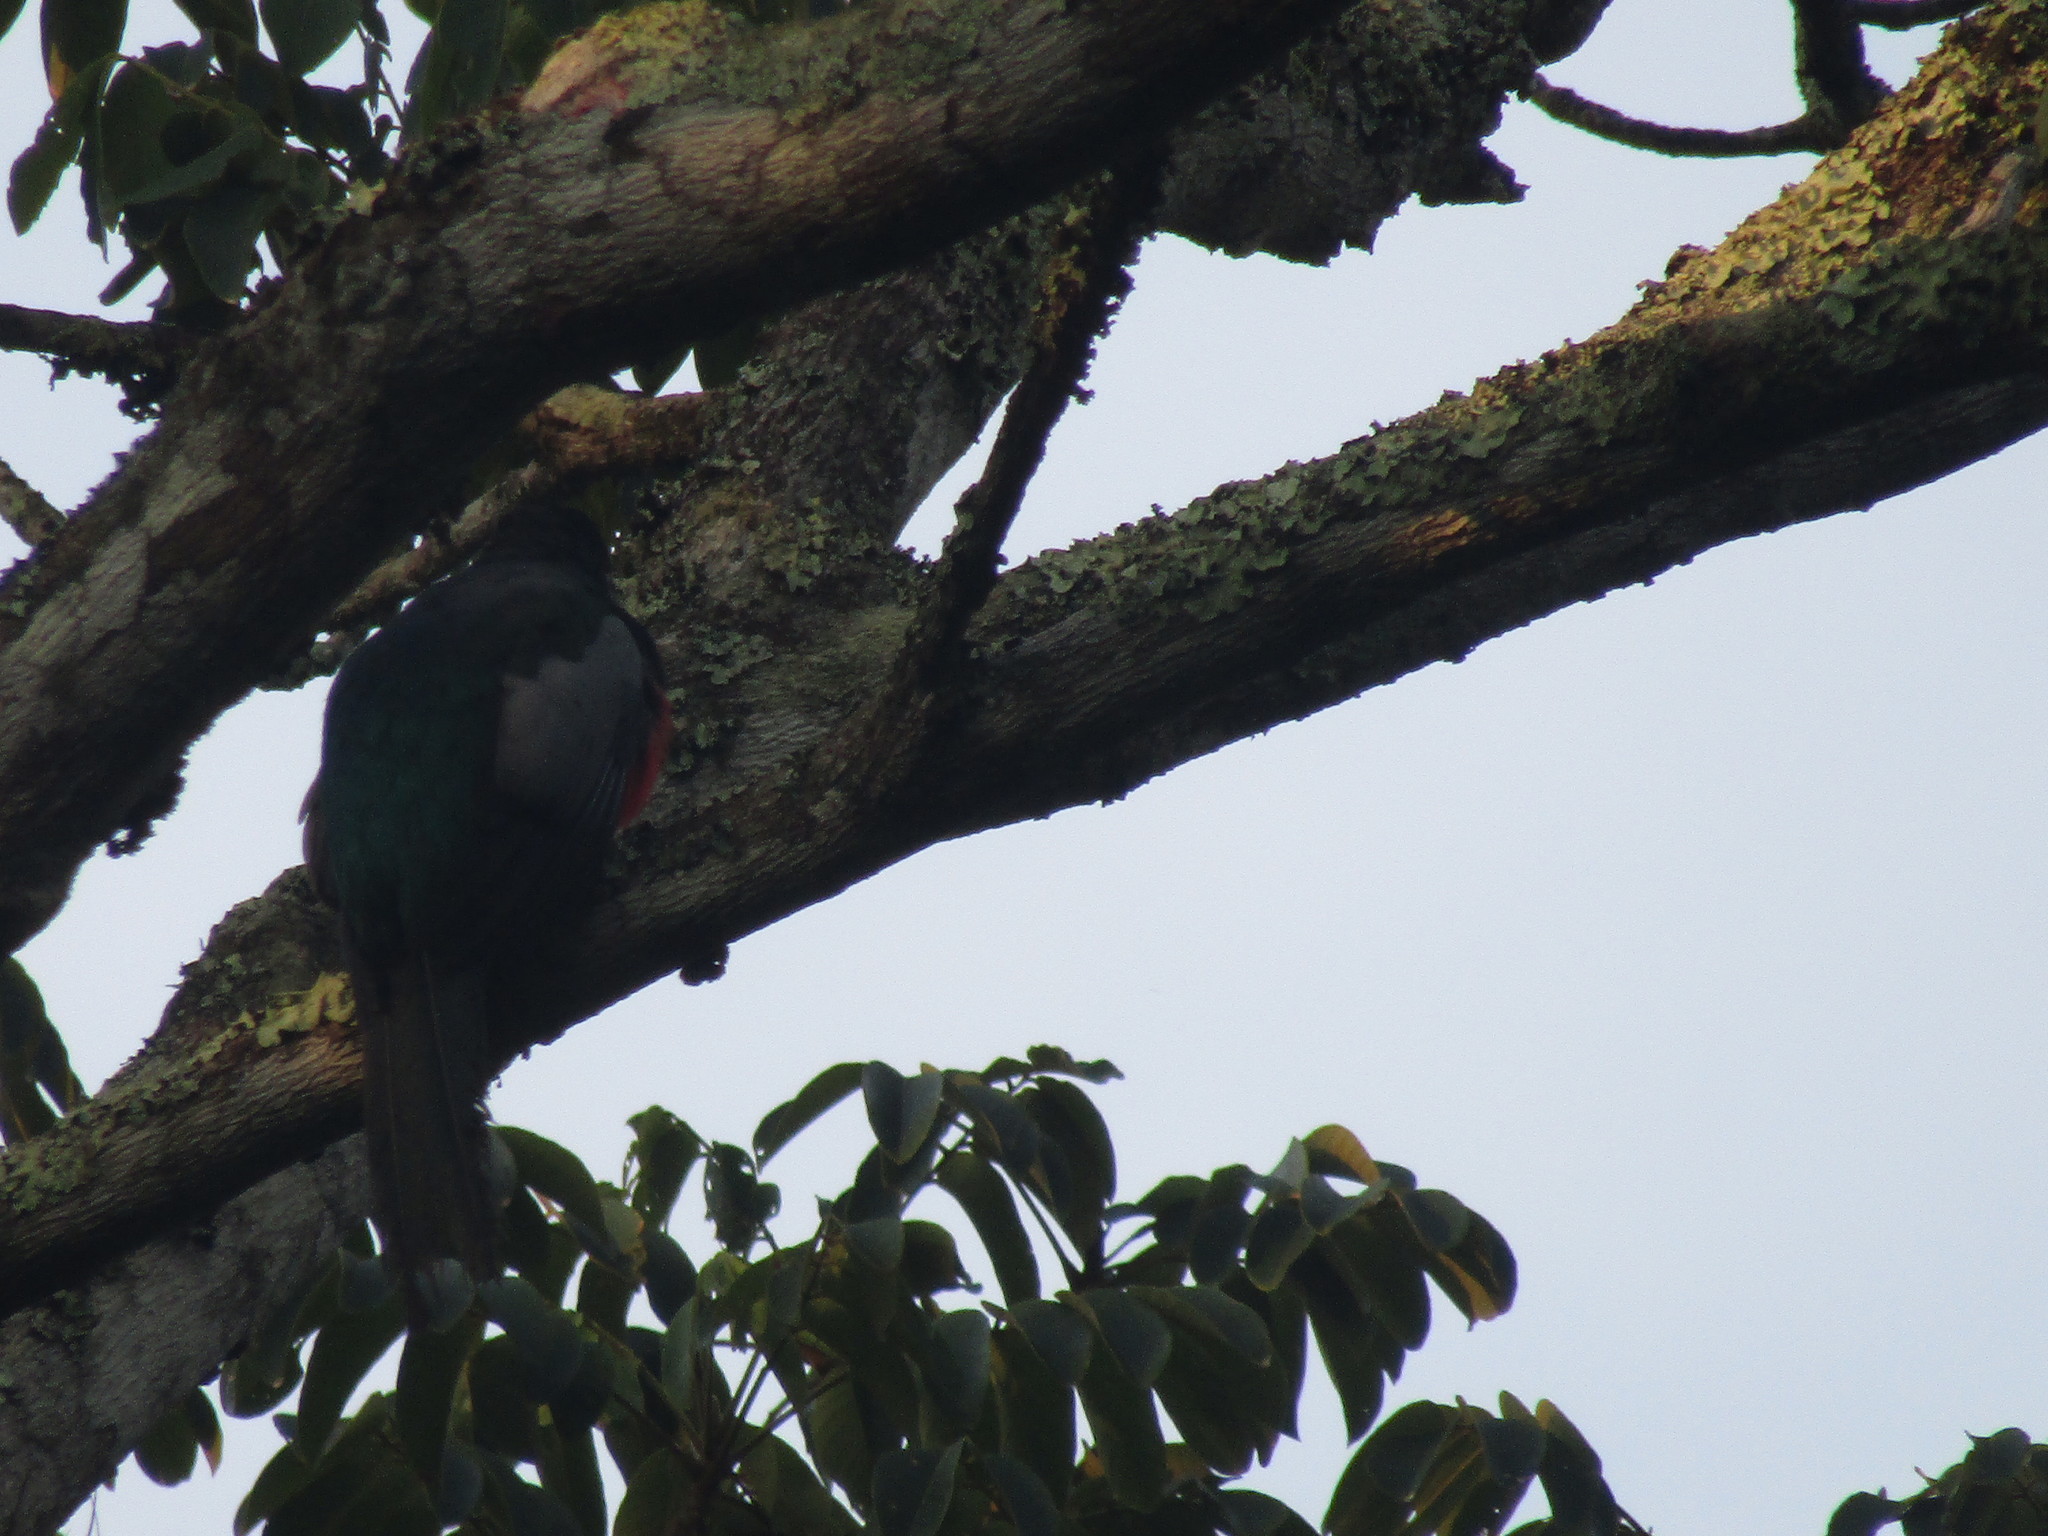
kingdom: Animalia
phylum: Chordata
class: Aves
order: Trogoniformes
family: Trogonidae
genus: Trogon
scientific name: Trogon collaris
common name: Collared trogon
